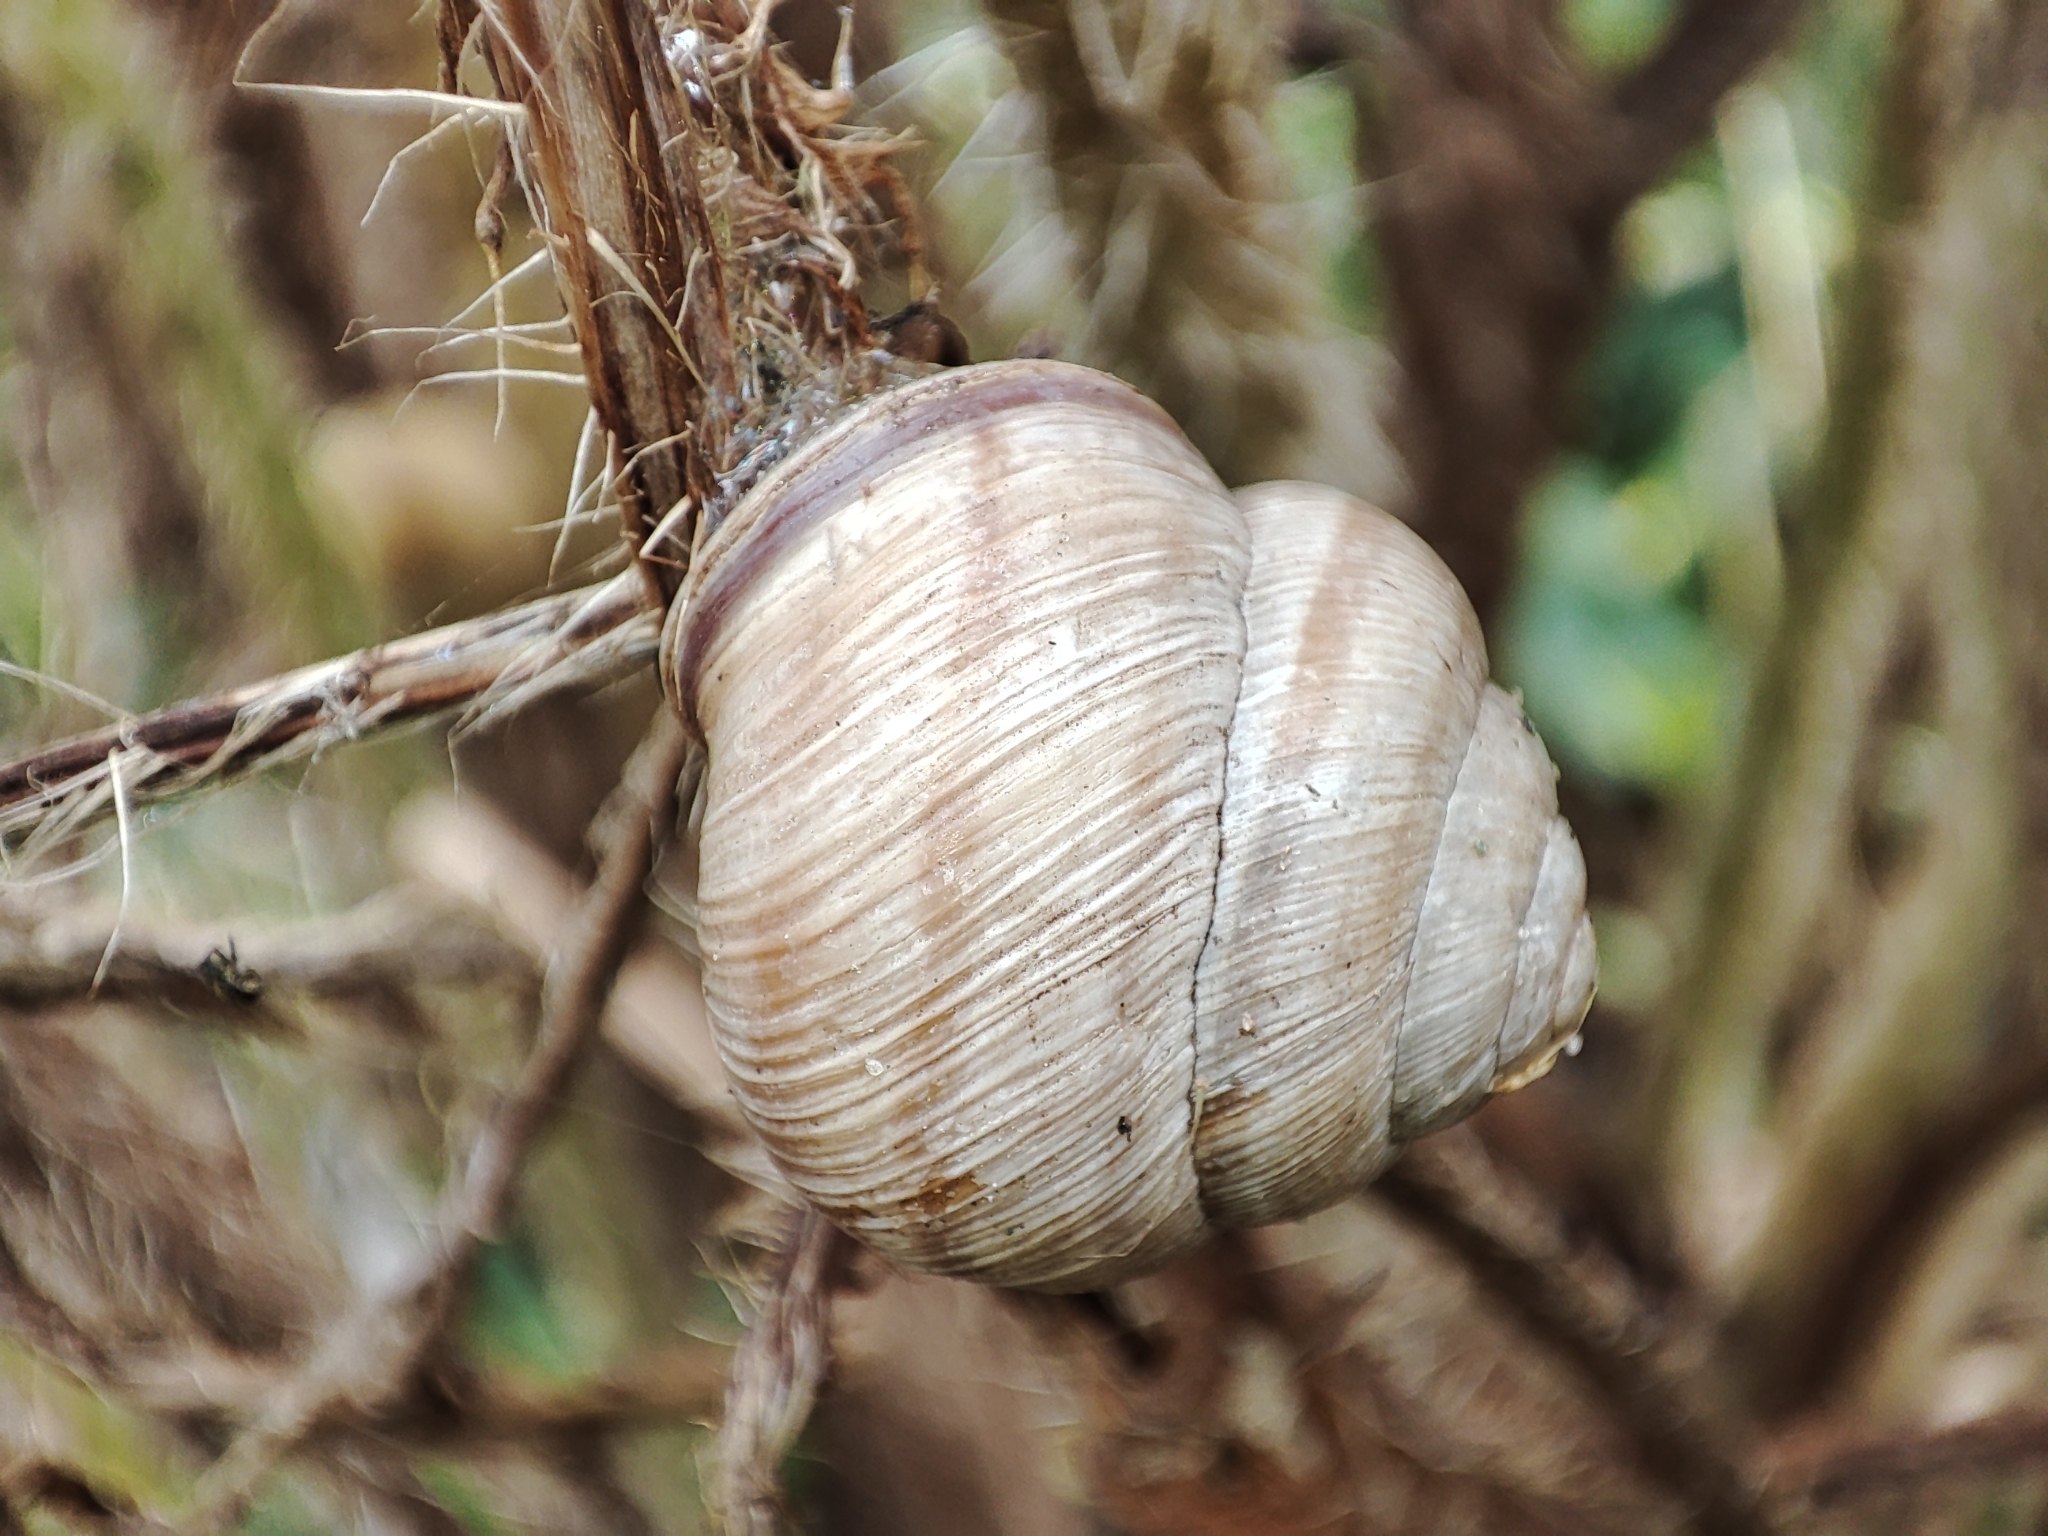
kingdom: Animalia
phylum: Mollusca
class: Gastropoda
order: Stylommatophora
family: Helicidae
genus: Caucasotachea
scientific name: Caucasotachea vindobonensis
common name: European helicid land snail
